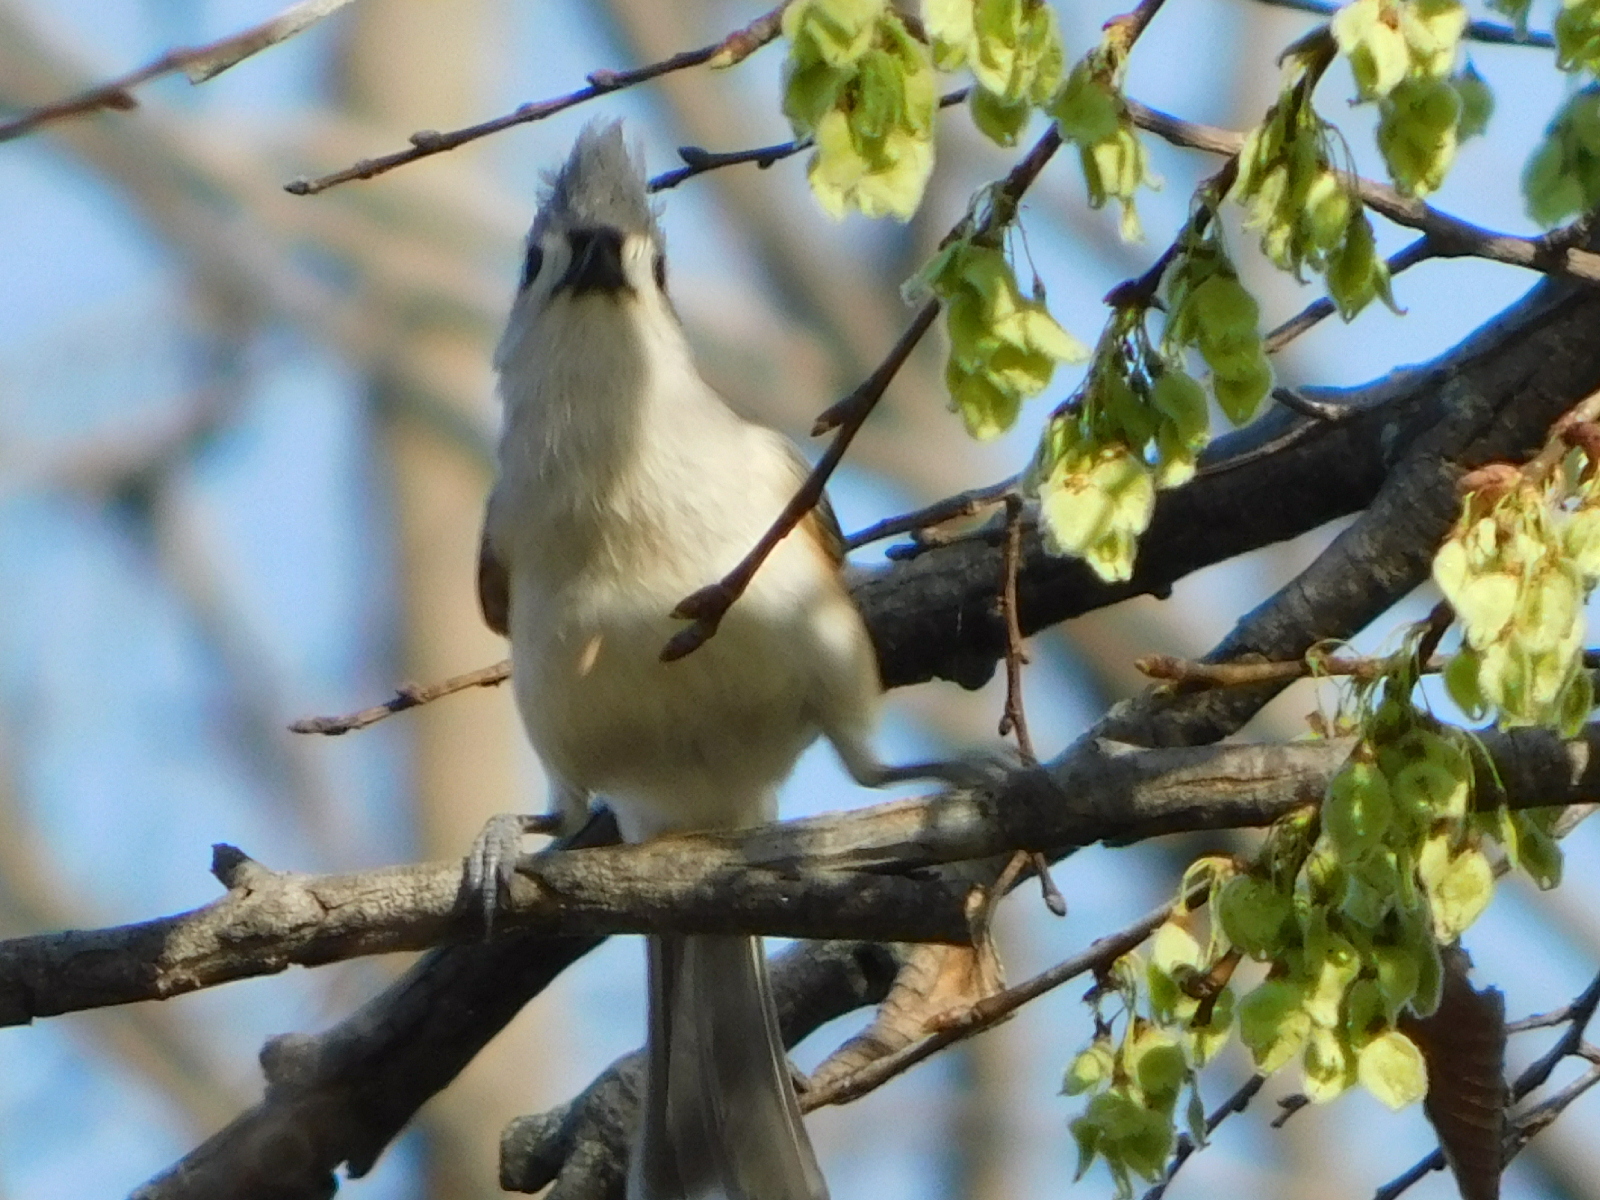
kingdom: Animalia
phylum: Chordata
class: Aves
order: Passeriformes
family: Paridae
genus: Baeolophus
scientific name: Baeolophus bicolor
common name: Tufted titmouse
